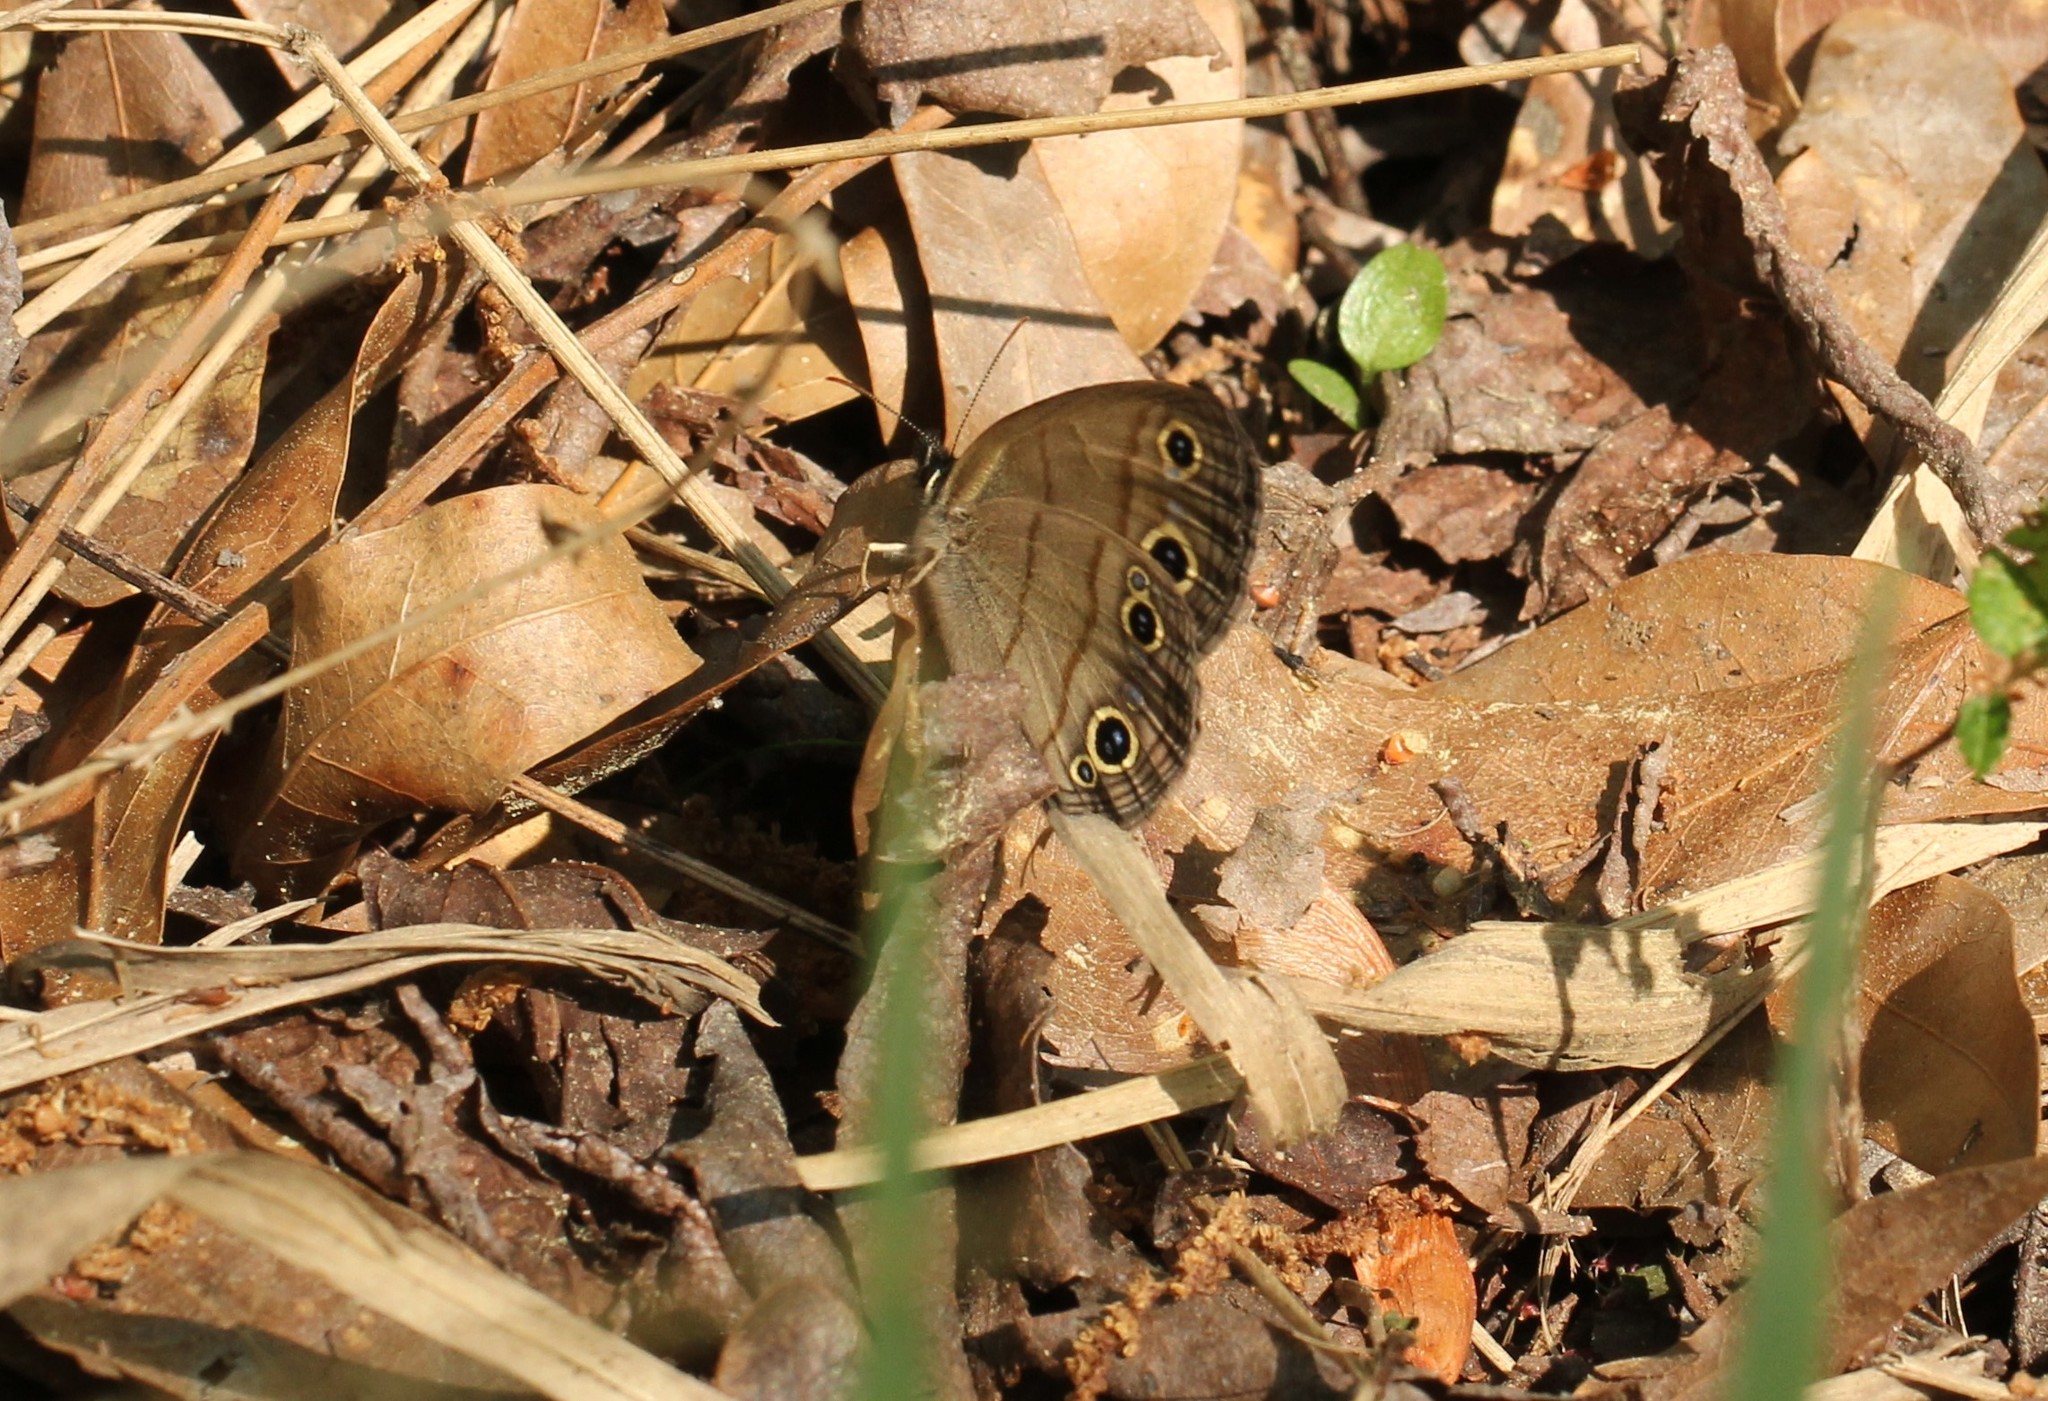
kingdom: Animalia
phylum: Arthropoda
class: Insecta
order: Lepidoptera
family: Nymphalidae
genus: Euptychia
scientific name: Euptychia cymela
